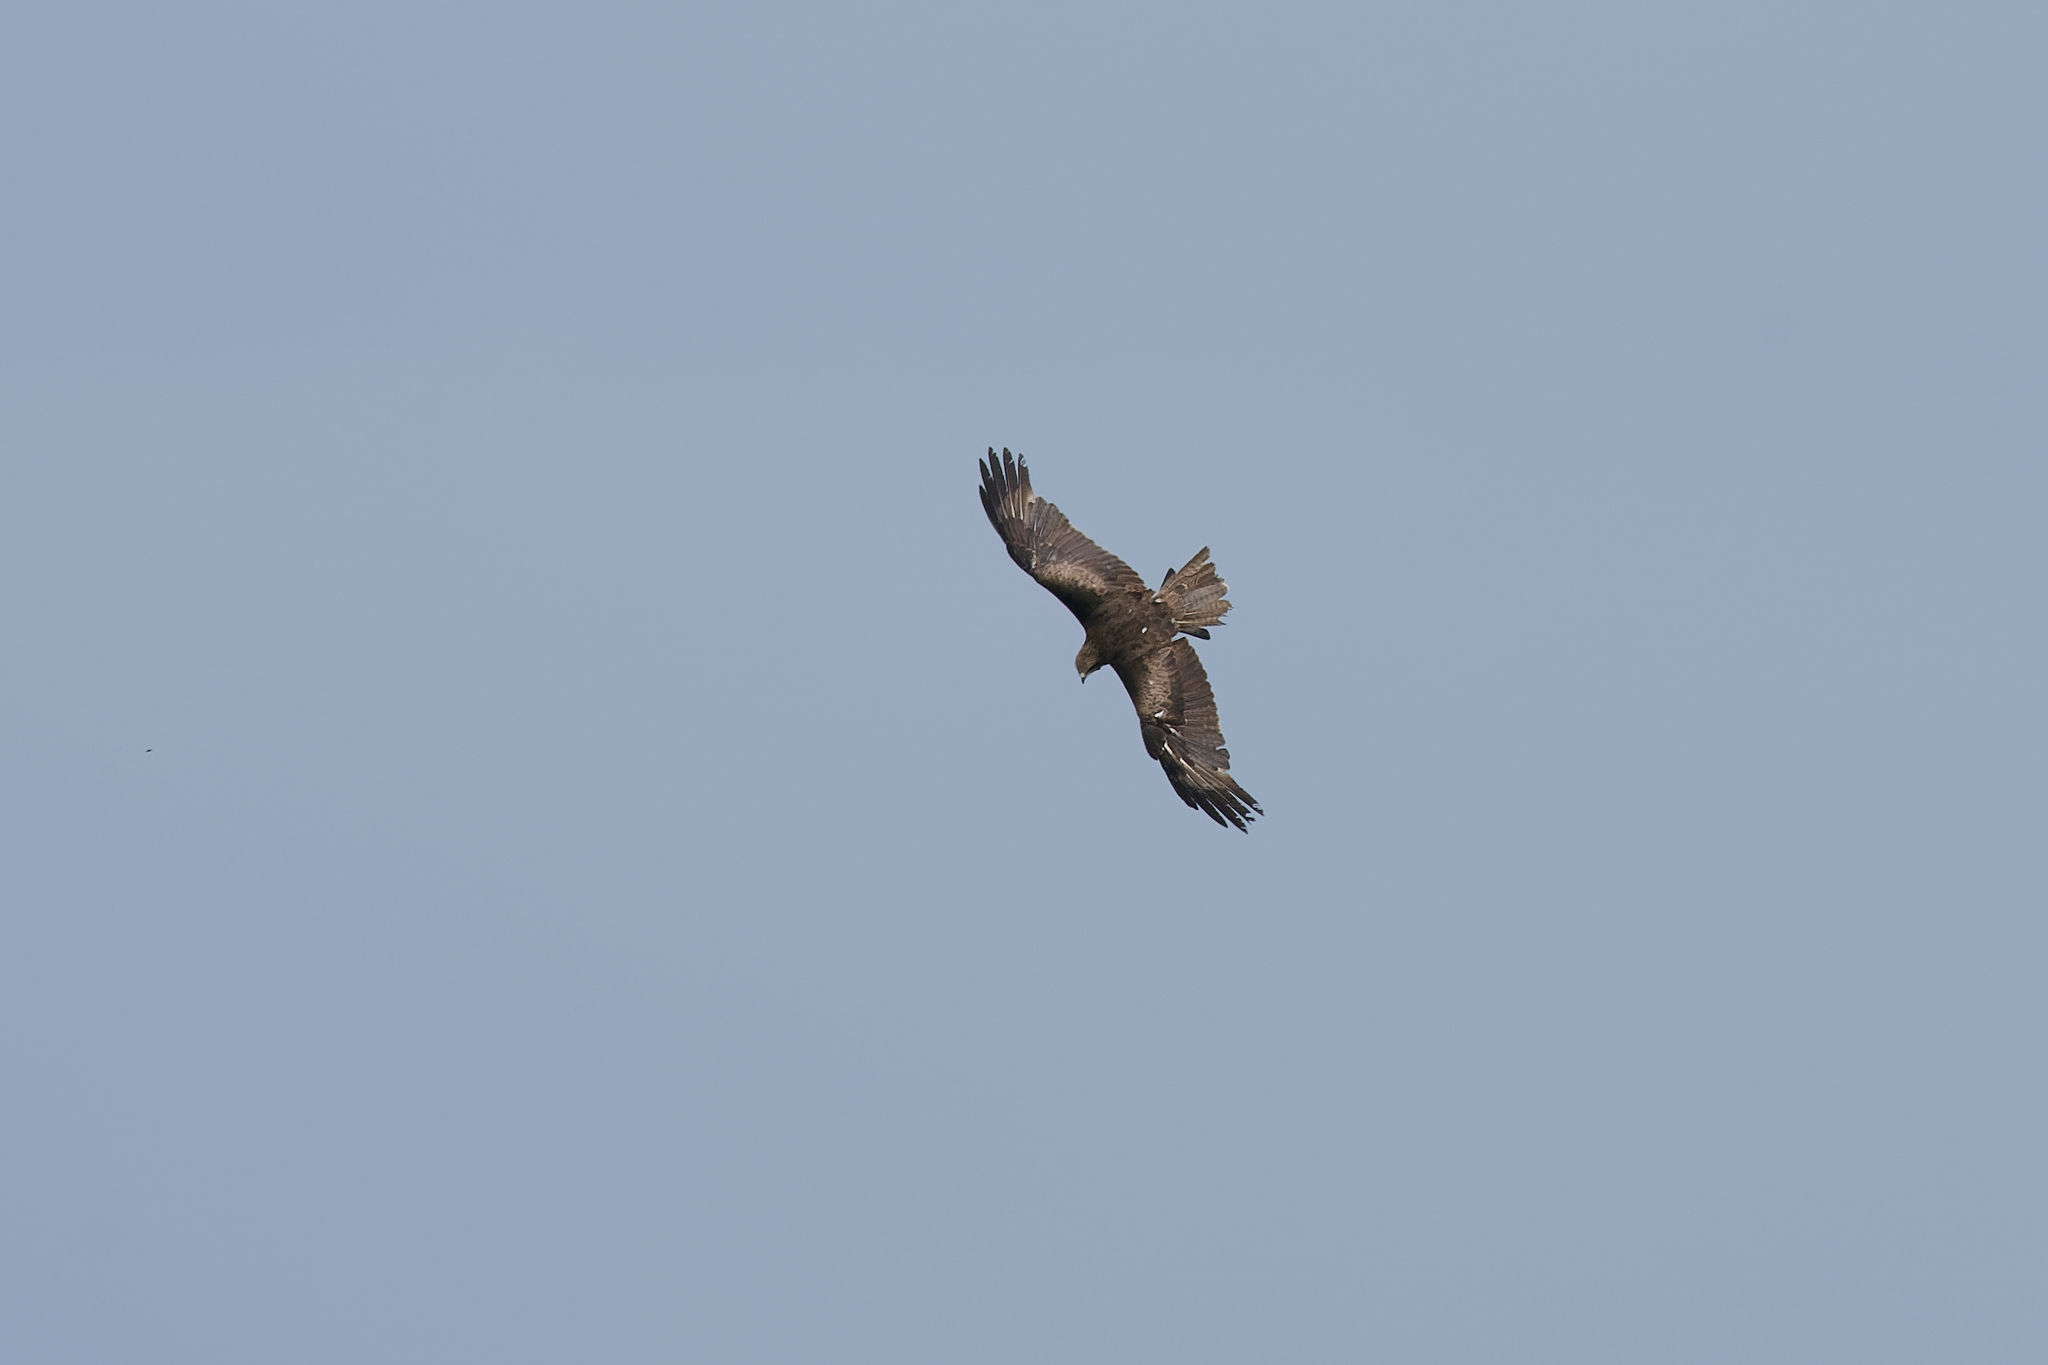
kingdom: Animalia
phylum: Chordata
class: Aves
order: Accipitriformes
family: Accipitridae
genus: Milvus
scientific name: Milvus migrans
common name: Black kite
